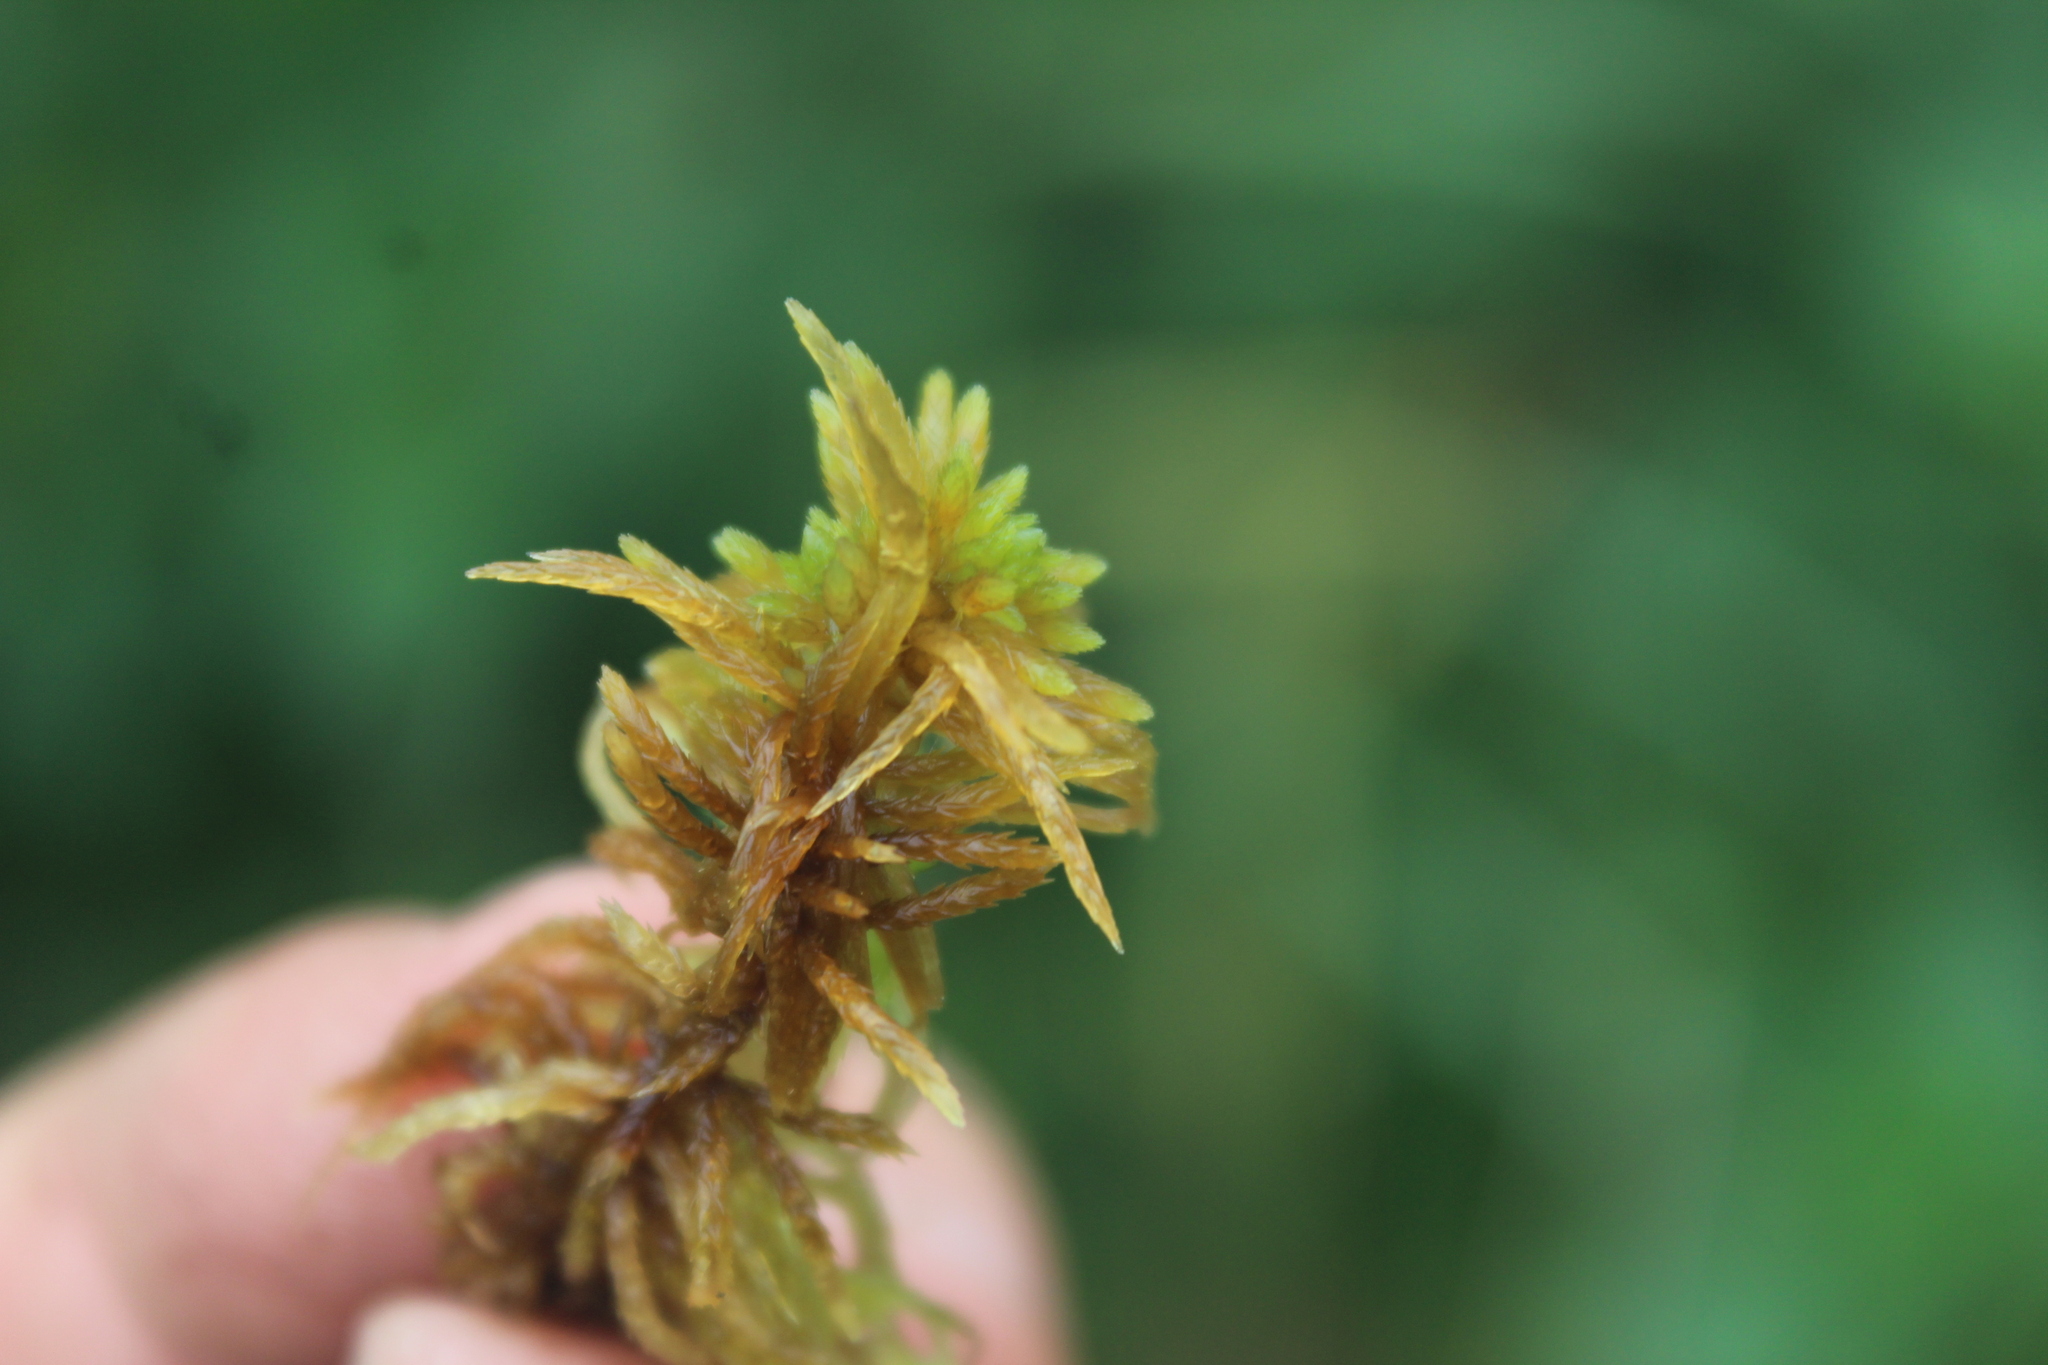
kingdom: Plantae
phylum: Bryophyta
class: Sphagnopsida
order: Sphagnales
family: Sphagnaceae
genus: Sphagnum
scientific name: Sphagnum teres
